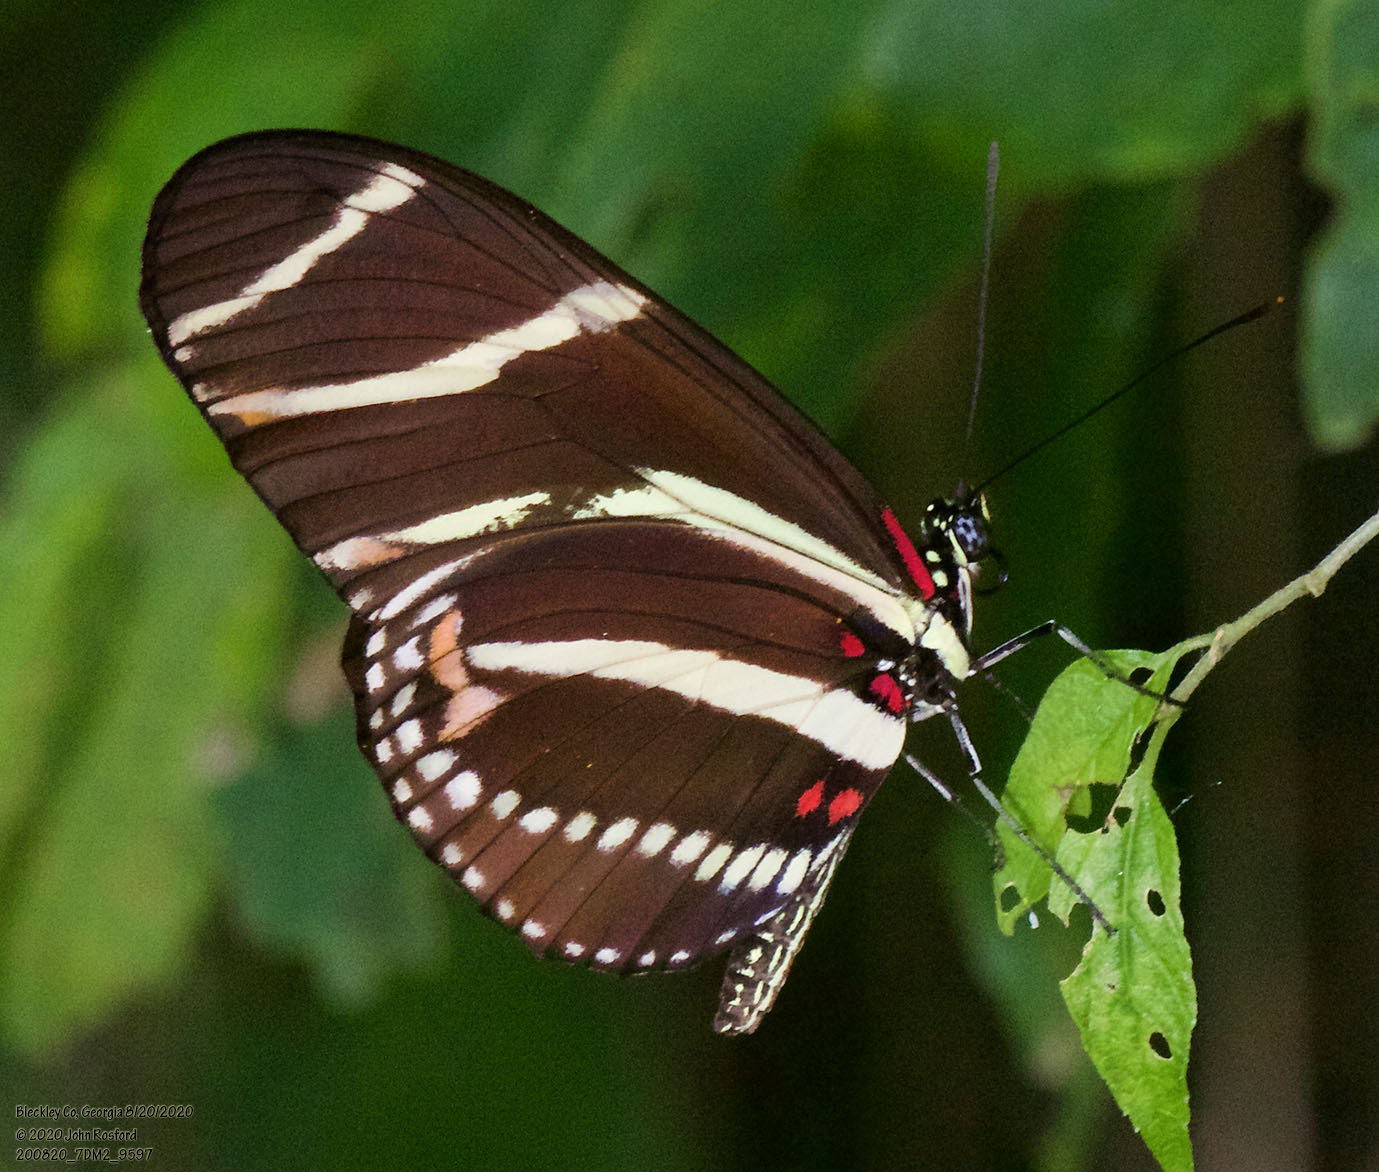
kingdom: Animalia
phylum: Arthropoda
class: Insecta
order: Lepidoptera
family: Nymphalidae
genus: Heliconius
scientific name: Heliconius charithonia
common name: Zebra long wing
